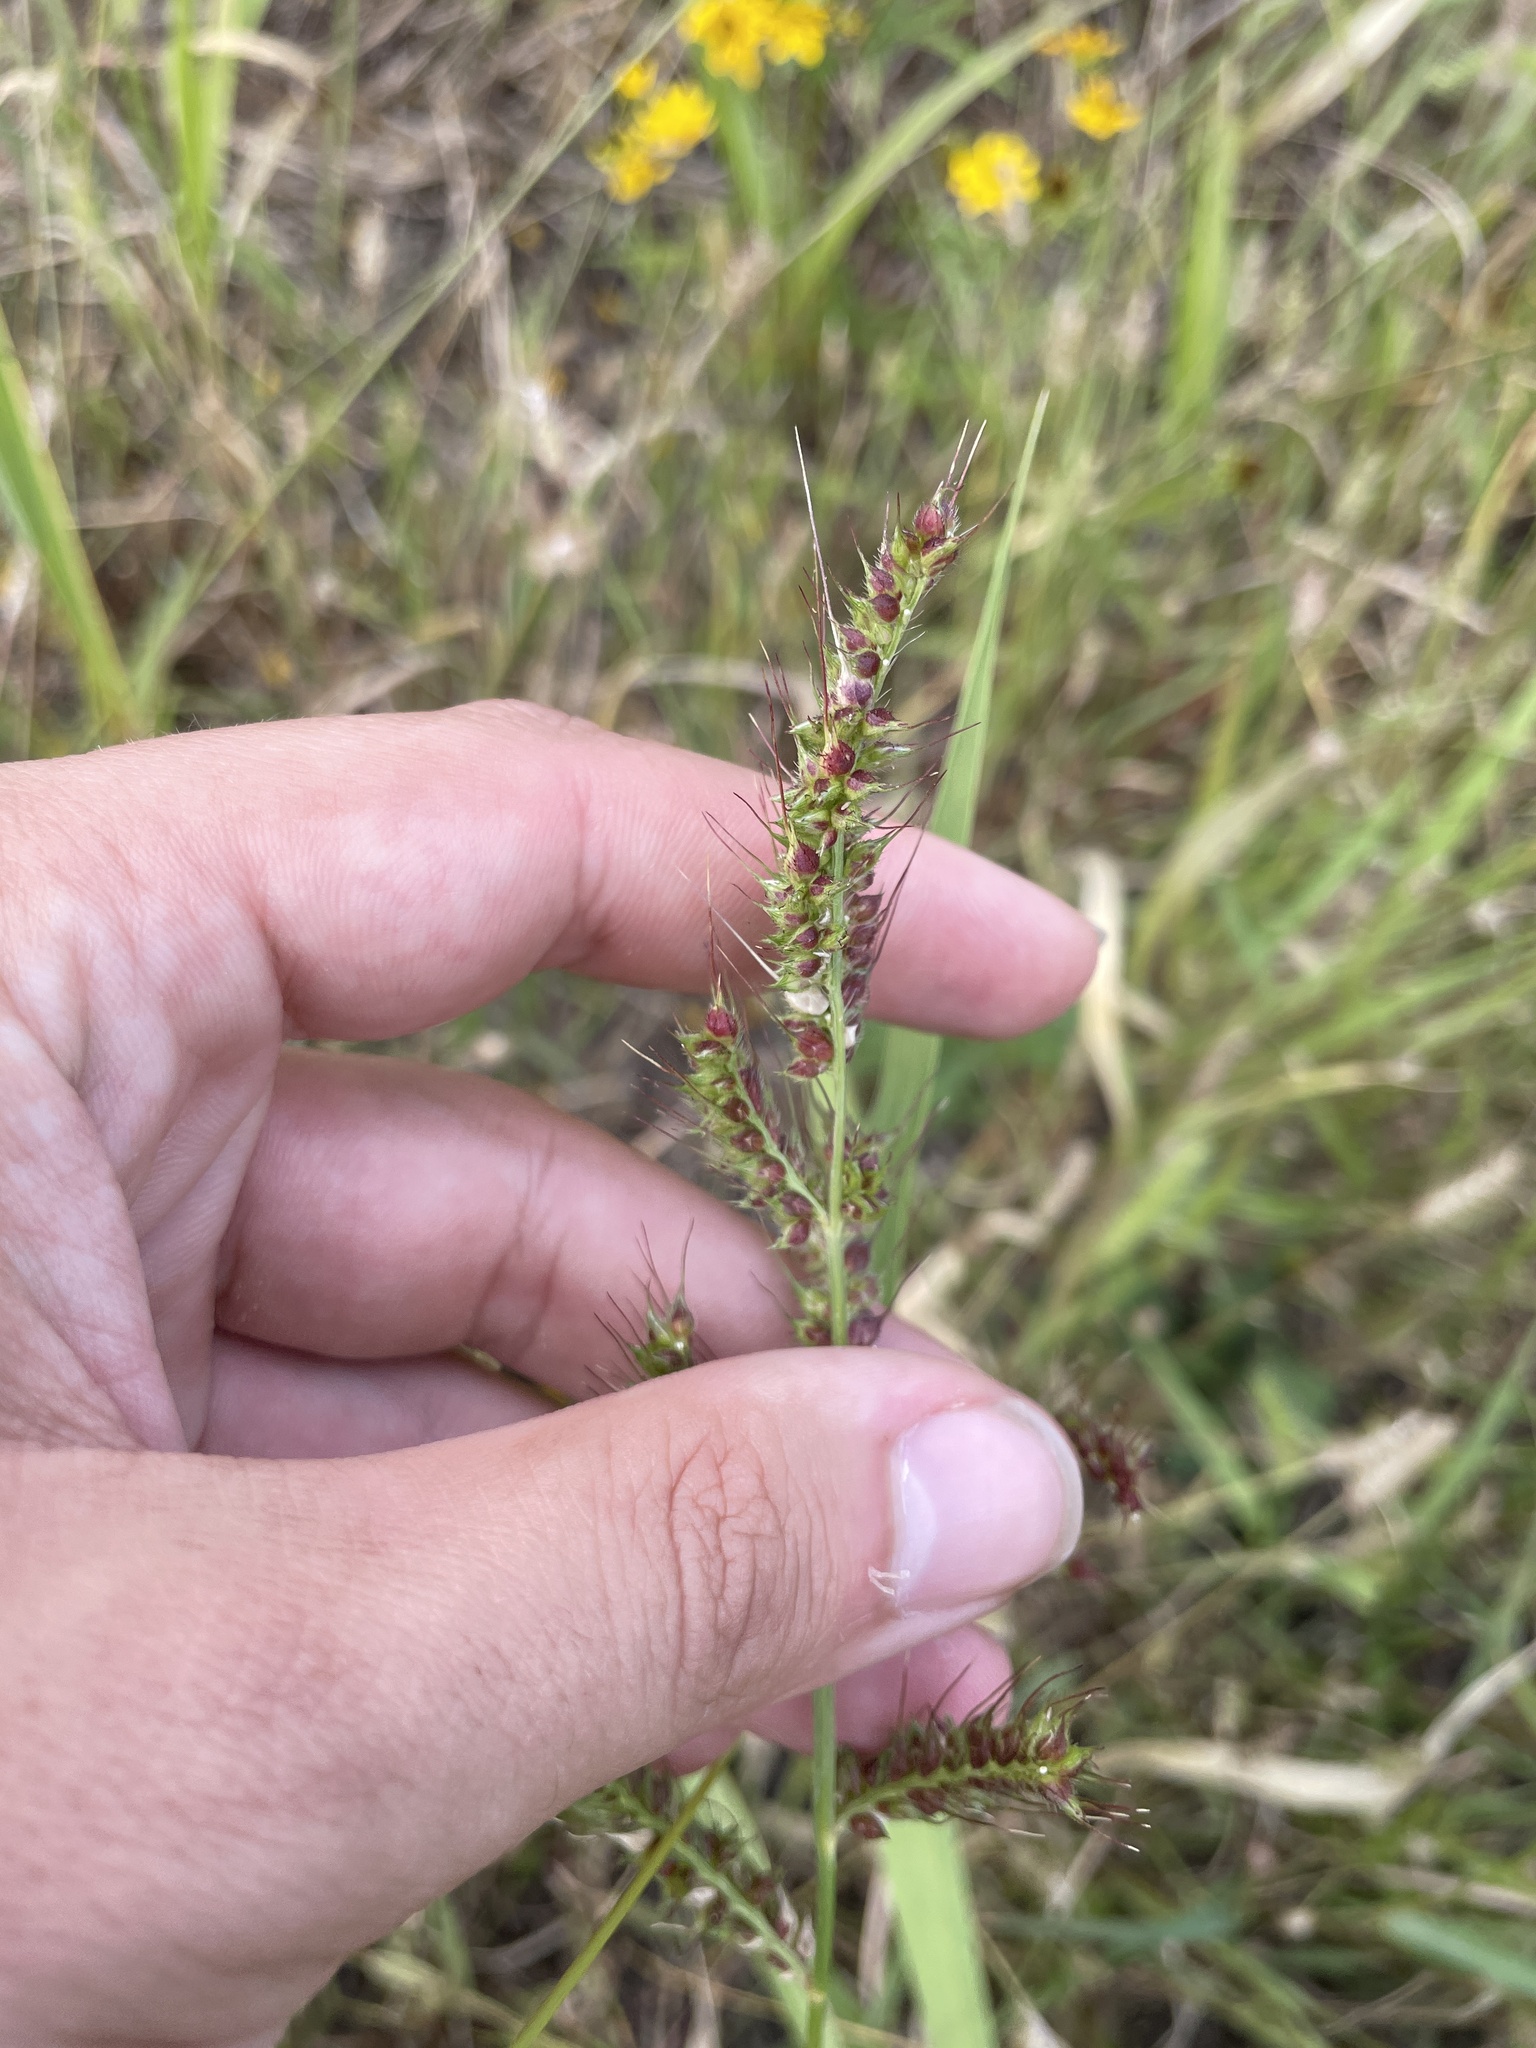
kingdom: Plantae
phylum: Tracheophyta
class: Liliopsida
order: Poales
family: Poaceae
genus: Echinochloa
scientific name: Echinochloa
